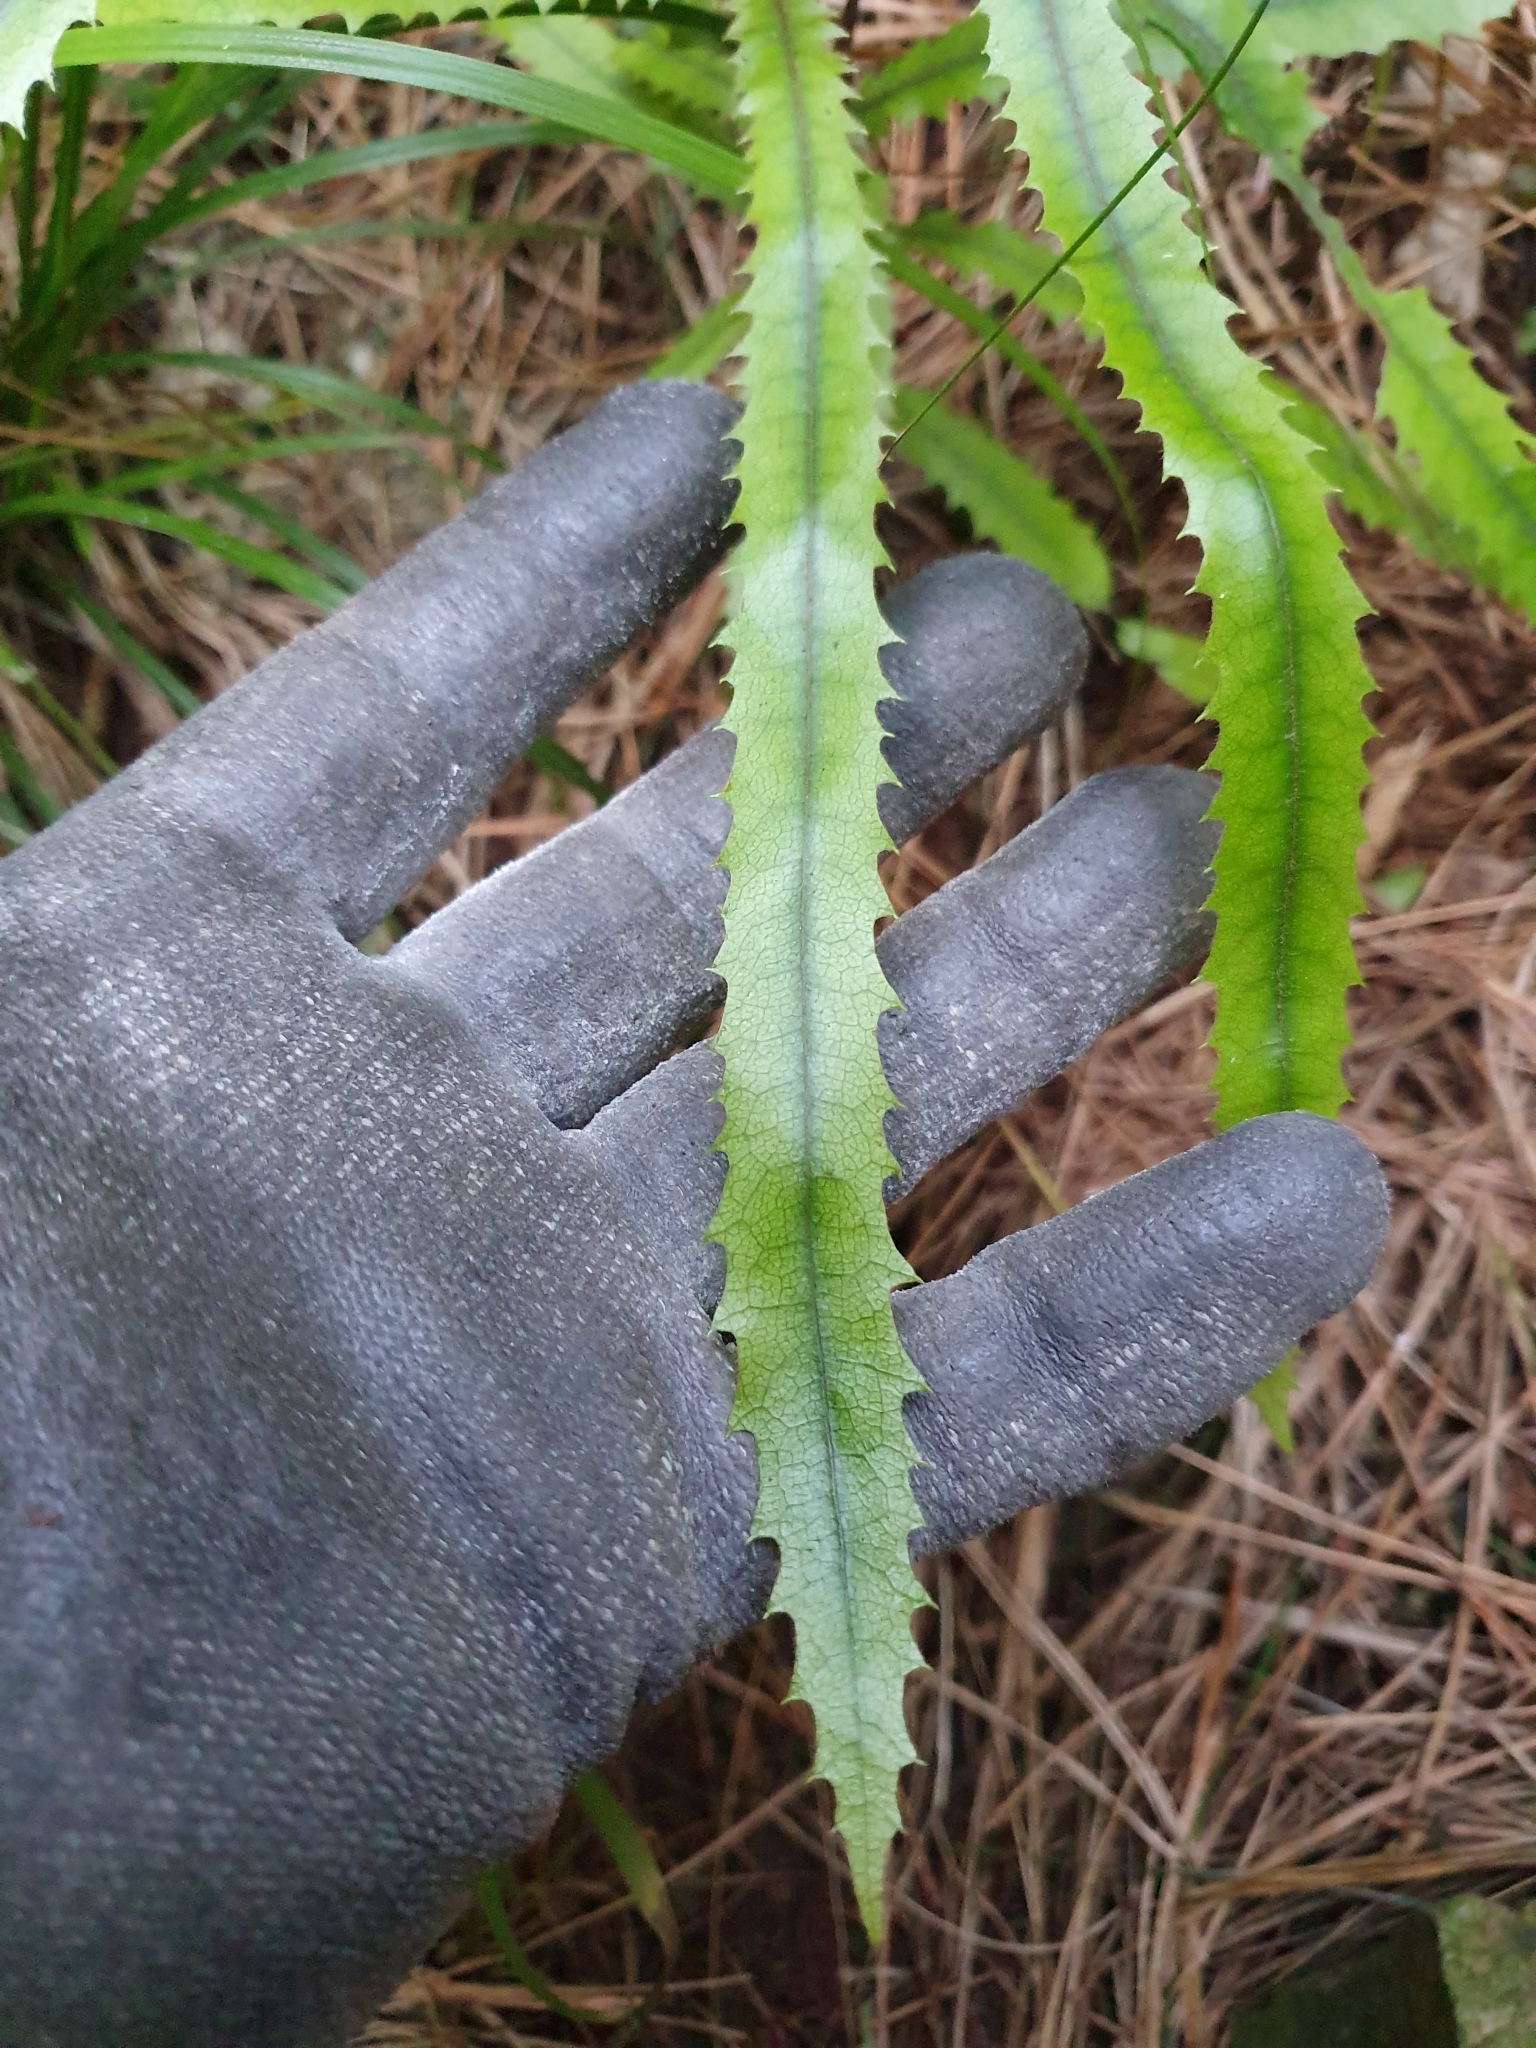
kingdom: Plantae
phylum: Tracheophyta
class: Magnoliopsida
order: Proteales
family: Proteaceae
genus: Knightia
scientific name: Knightia excelsa
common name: New zealand-honeysuckle
